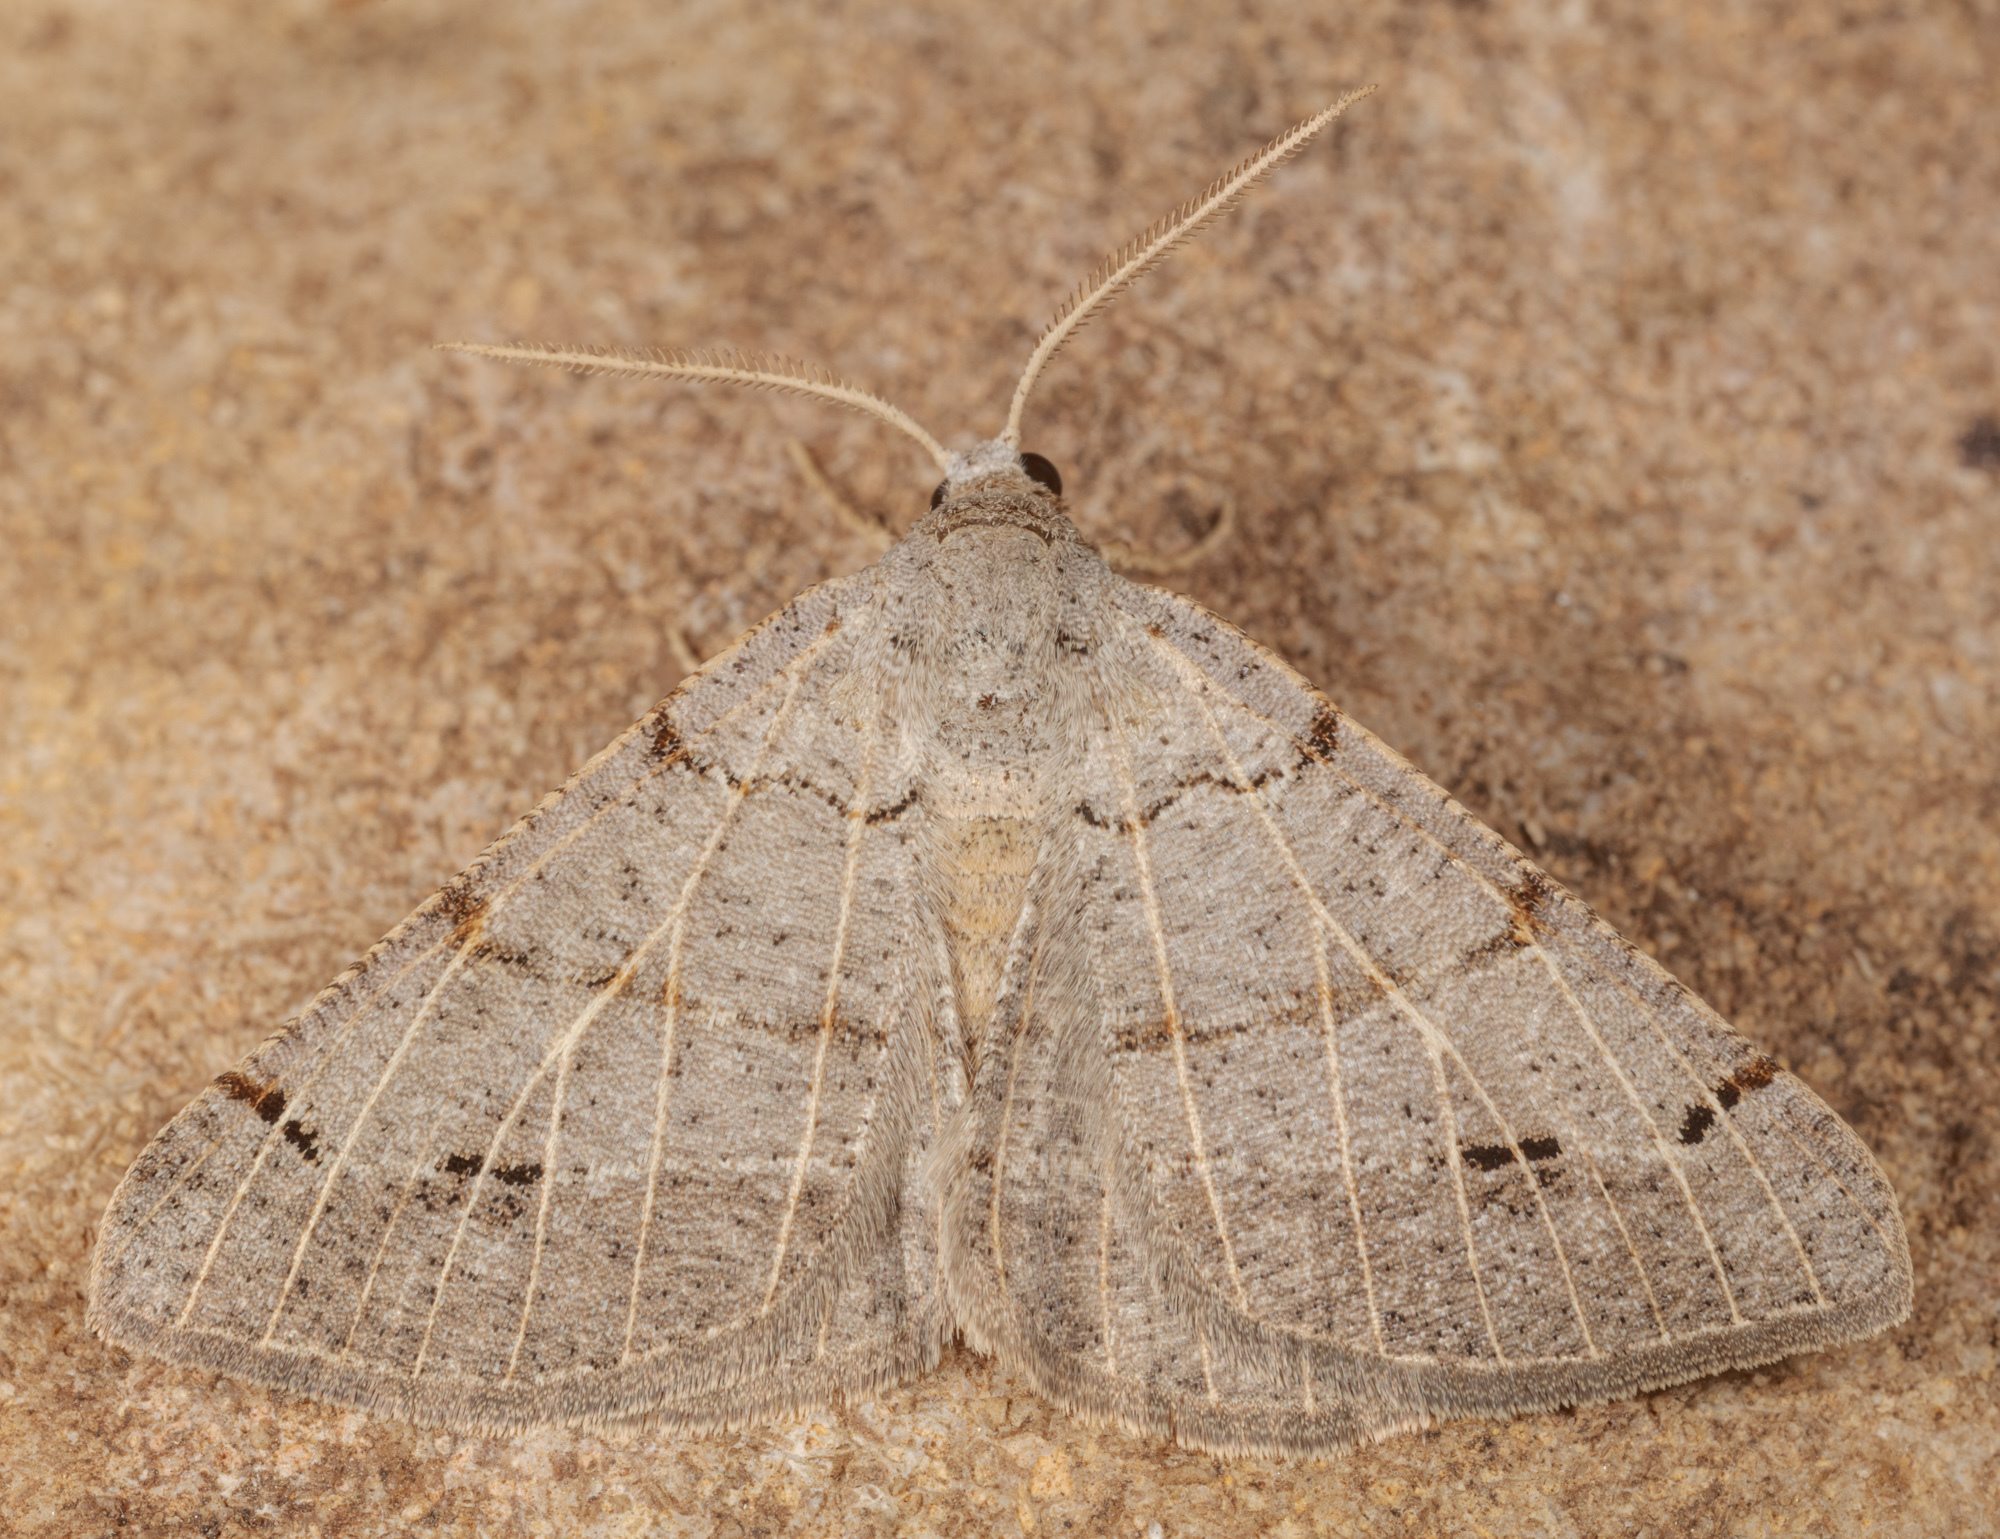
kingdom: Animalia
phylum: Arthropoda
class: Insecta
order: Lepidoptera
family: Geometridae
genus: Isturgia
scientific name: Isturgia dislocaria
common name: Pale-viened enconista
